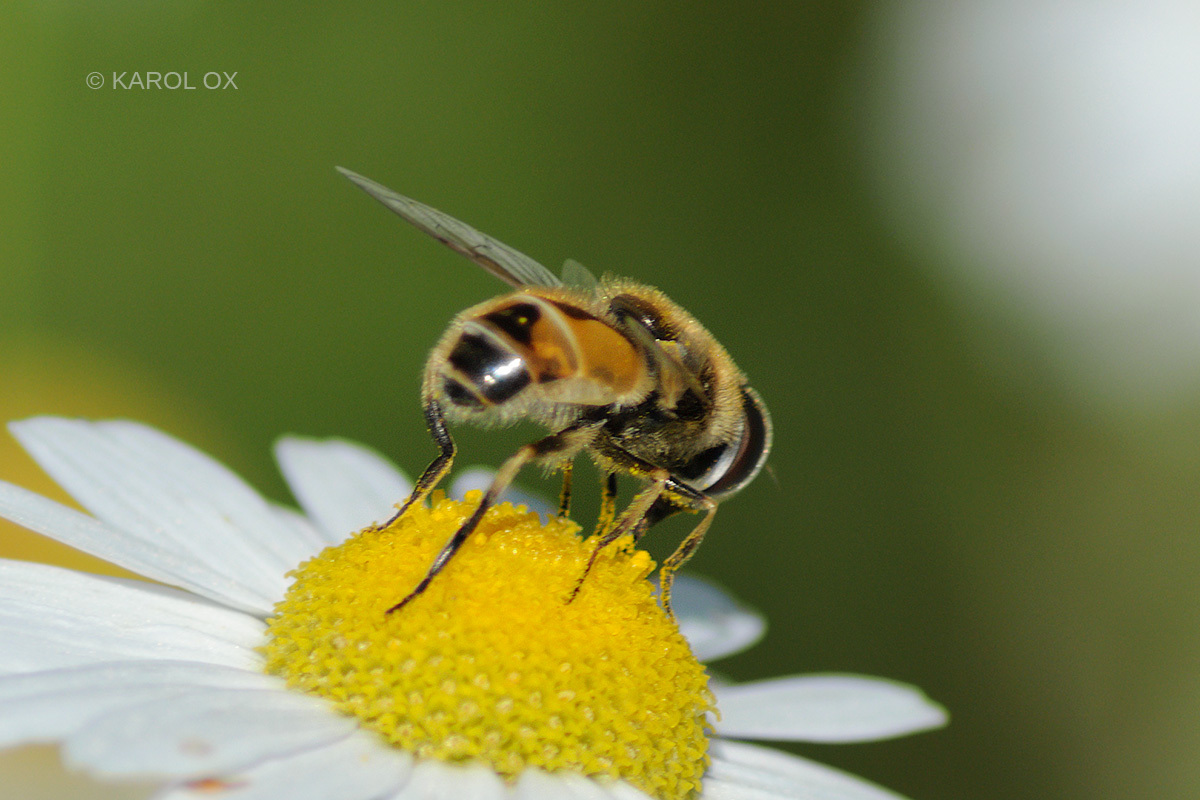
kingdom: Animalia
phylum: Arthropoda
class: Insecta
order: Diptera
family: Syrphidae
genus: Eristalis
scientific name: Eristalis arbustorum
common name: Hover fly
